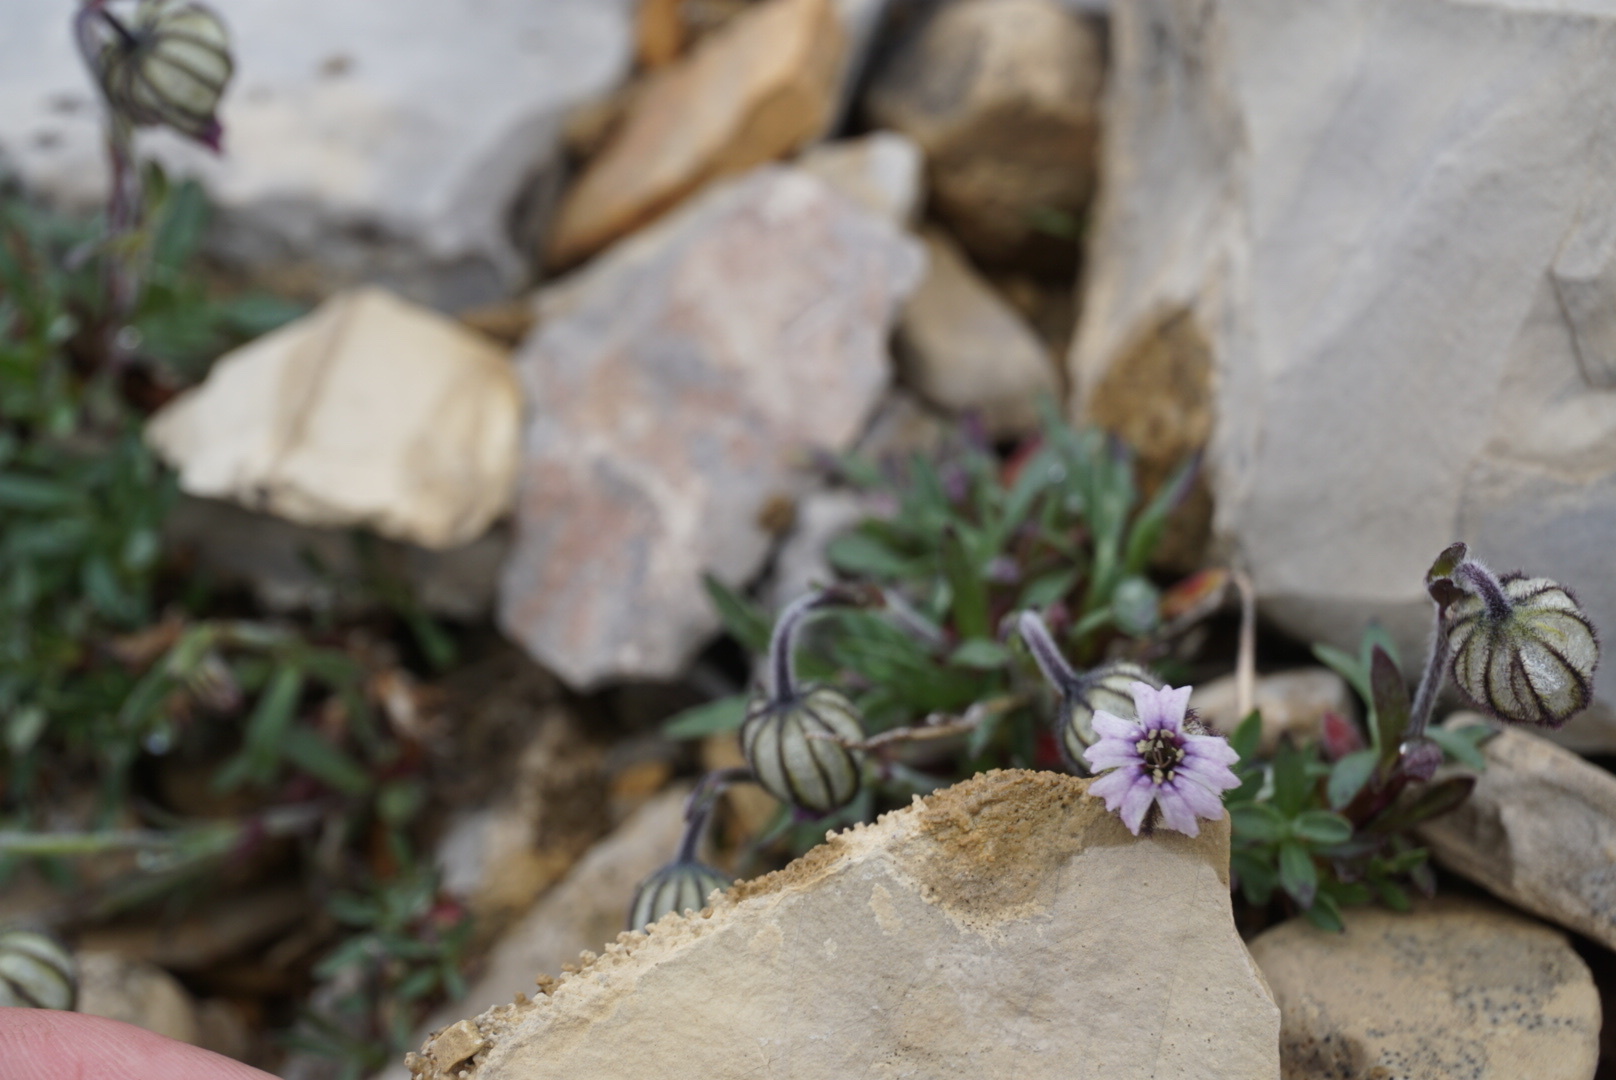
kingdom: Plantae
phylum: Tracheophyta
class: Magnoliopsida
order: Caryophyllales
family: Caryophyllaceae
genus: Silene
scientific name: Silene uralensis
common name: Nodding campion
